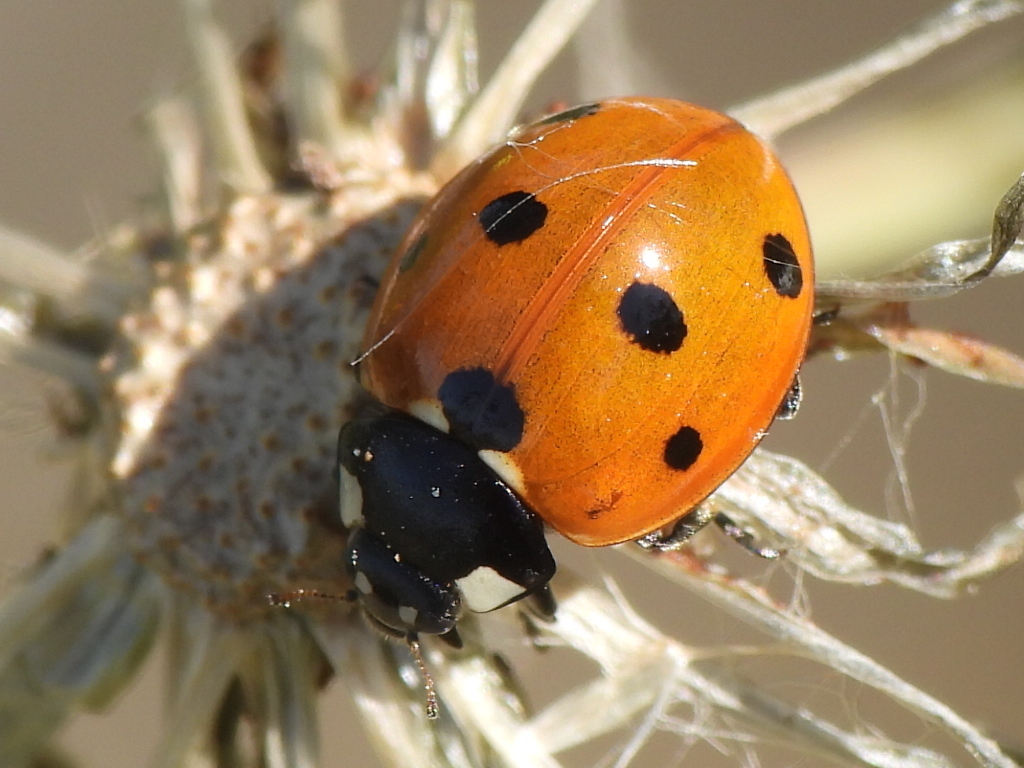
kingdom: Animalia
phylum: Arthropoda
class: Insecta
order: Coleoptera
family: Coccinellidae
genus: Coccinella
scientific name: Coccinella septempunctata
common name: Sevenspotted lady beetle
